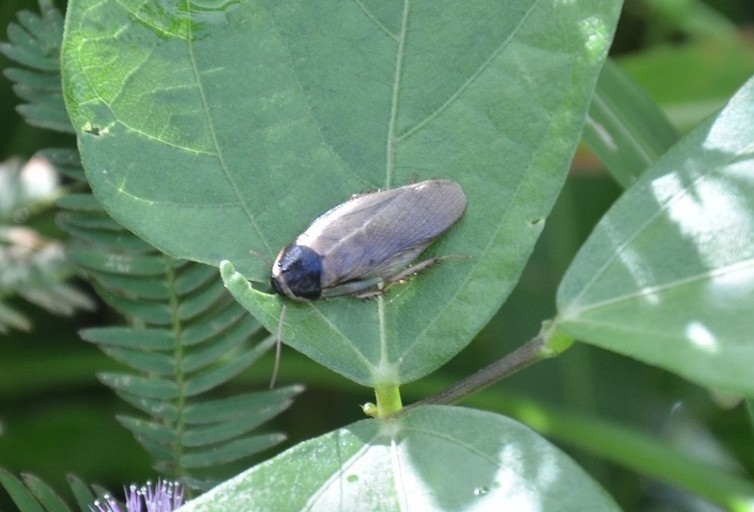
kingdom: Animalia
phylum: Arthropoda
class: Insecta
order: Blattodea
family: Blaberidae
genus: Pycnoscelus
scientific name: Pycnoscelus indicus
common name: Burrowing cockroach
